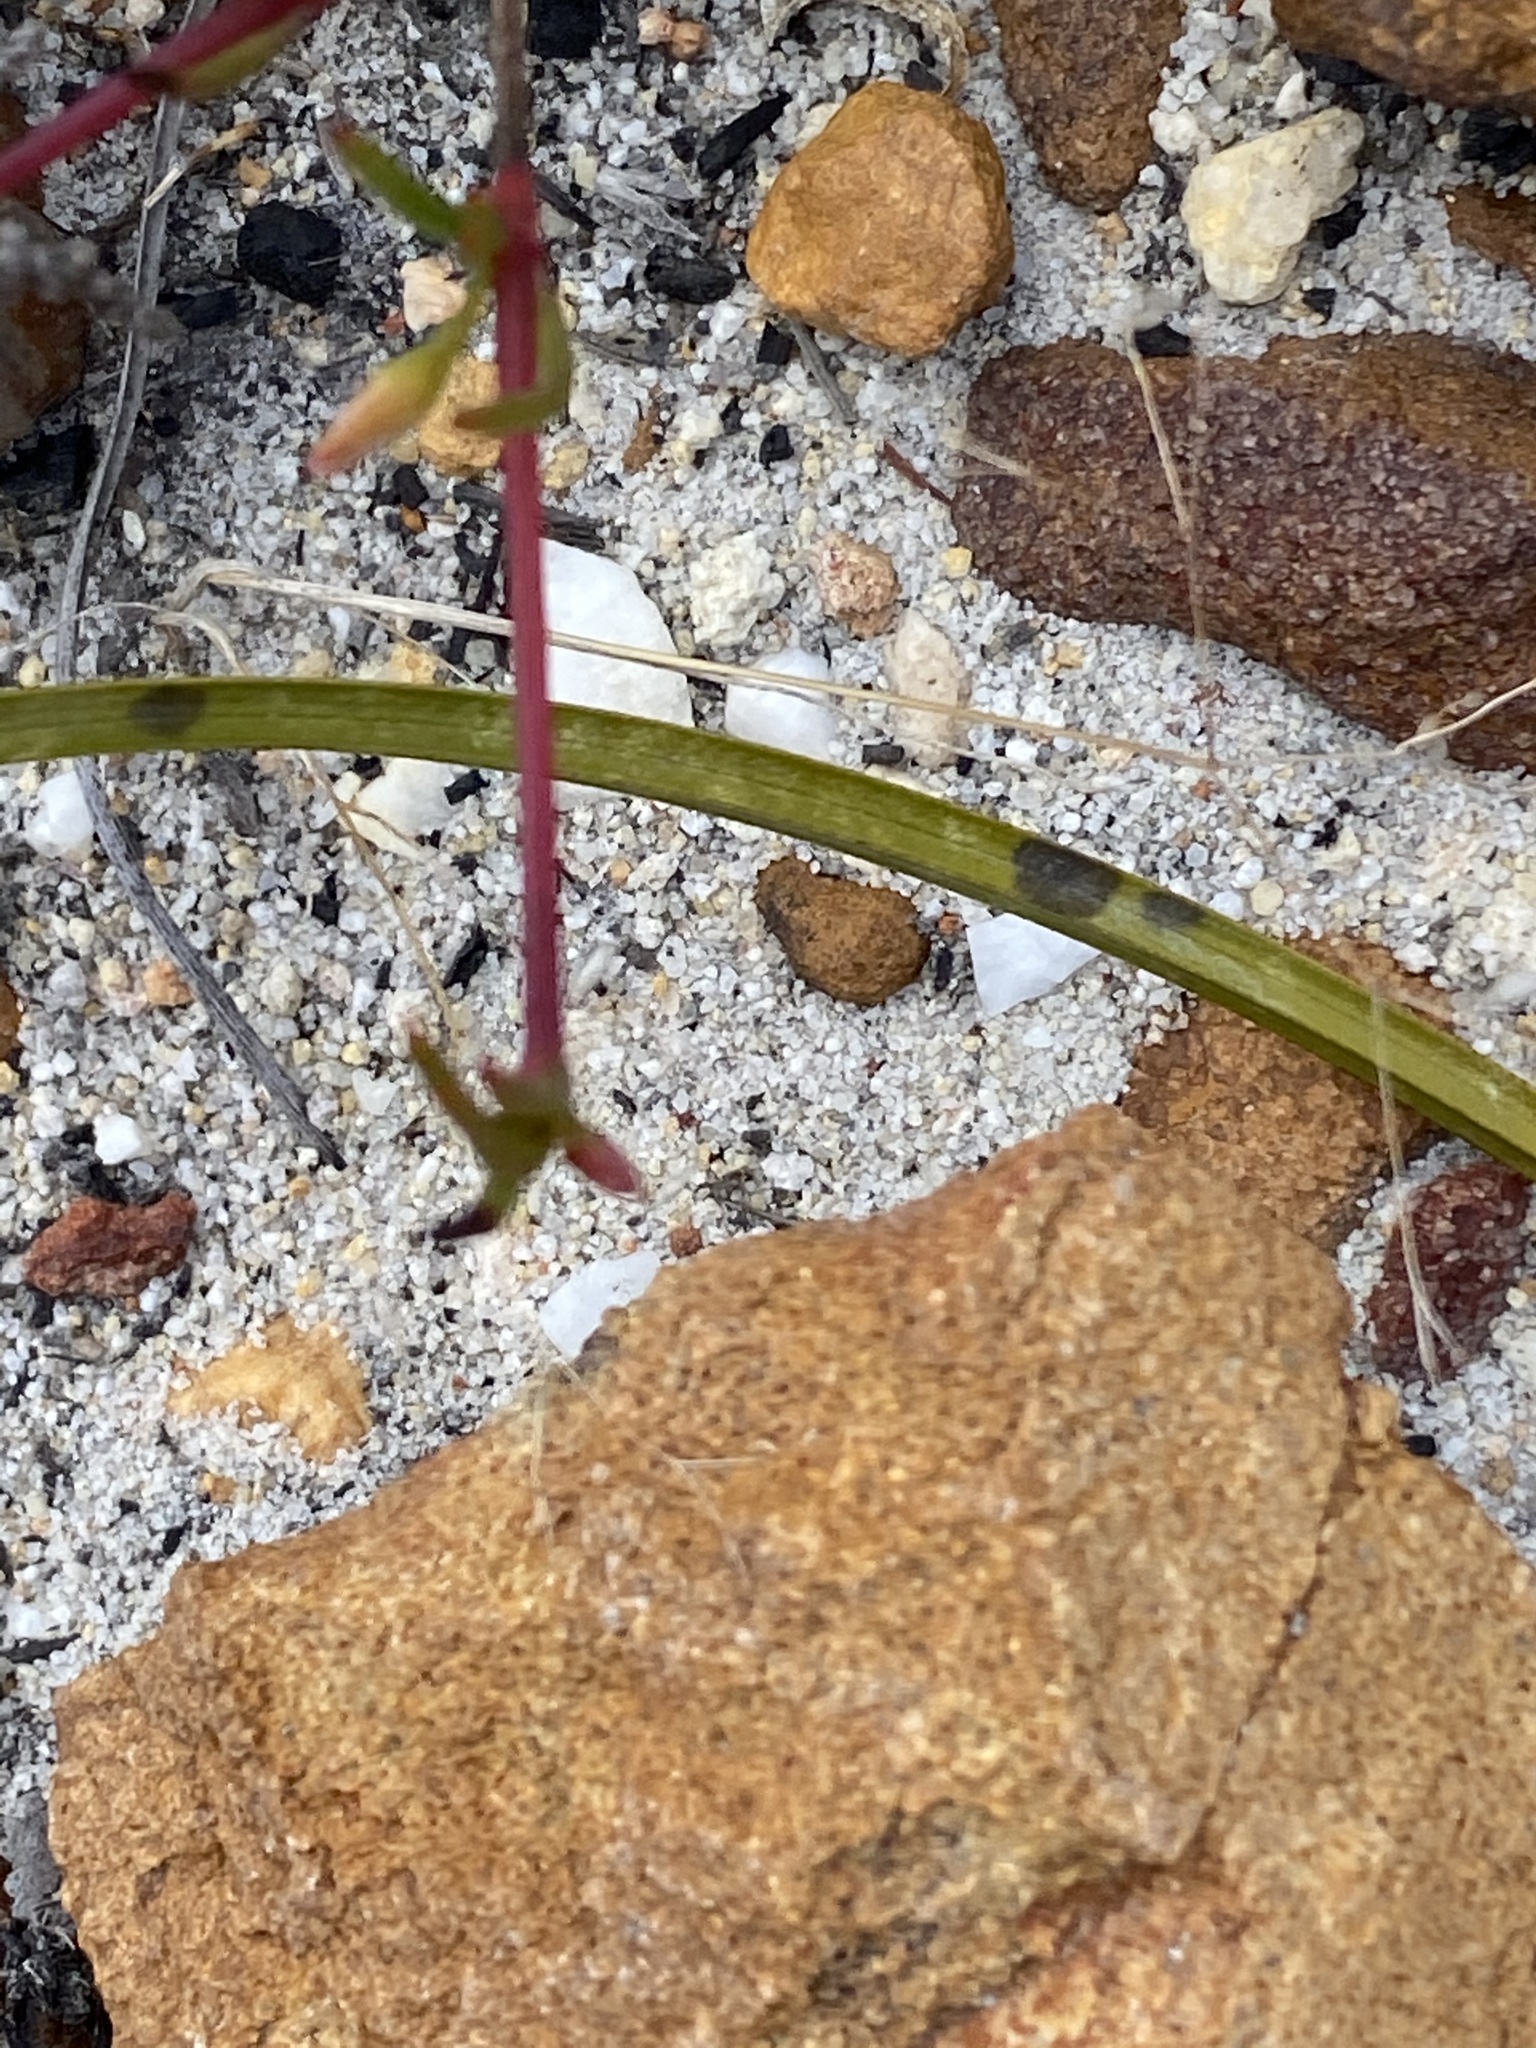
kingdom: Plantae
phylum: Tracheophyta
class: Magnoliopsida
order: Caryophyllales
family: Aizoaceae
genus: Acrosanthes
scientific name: Acrosanthes teretifolia
